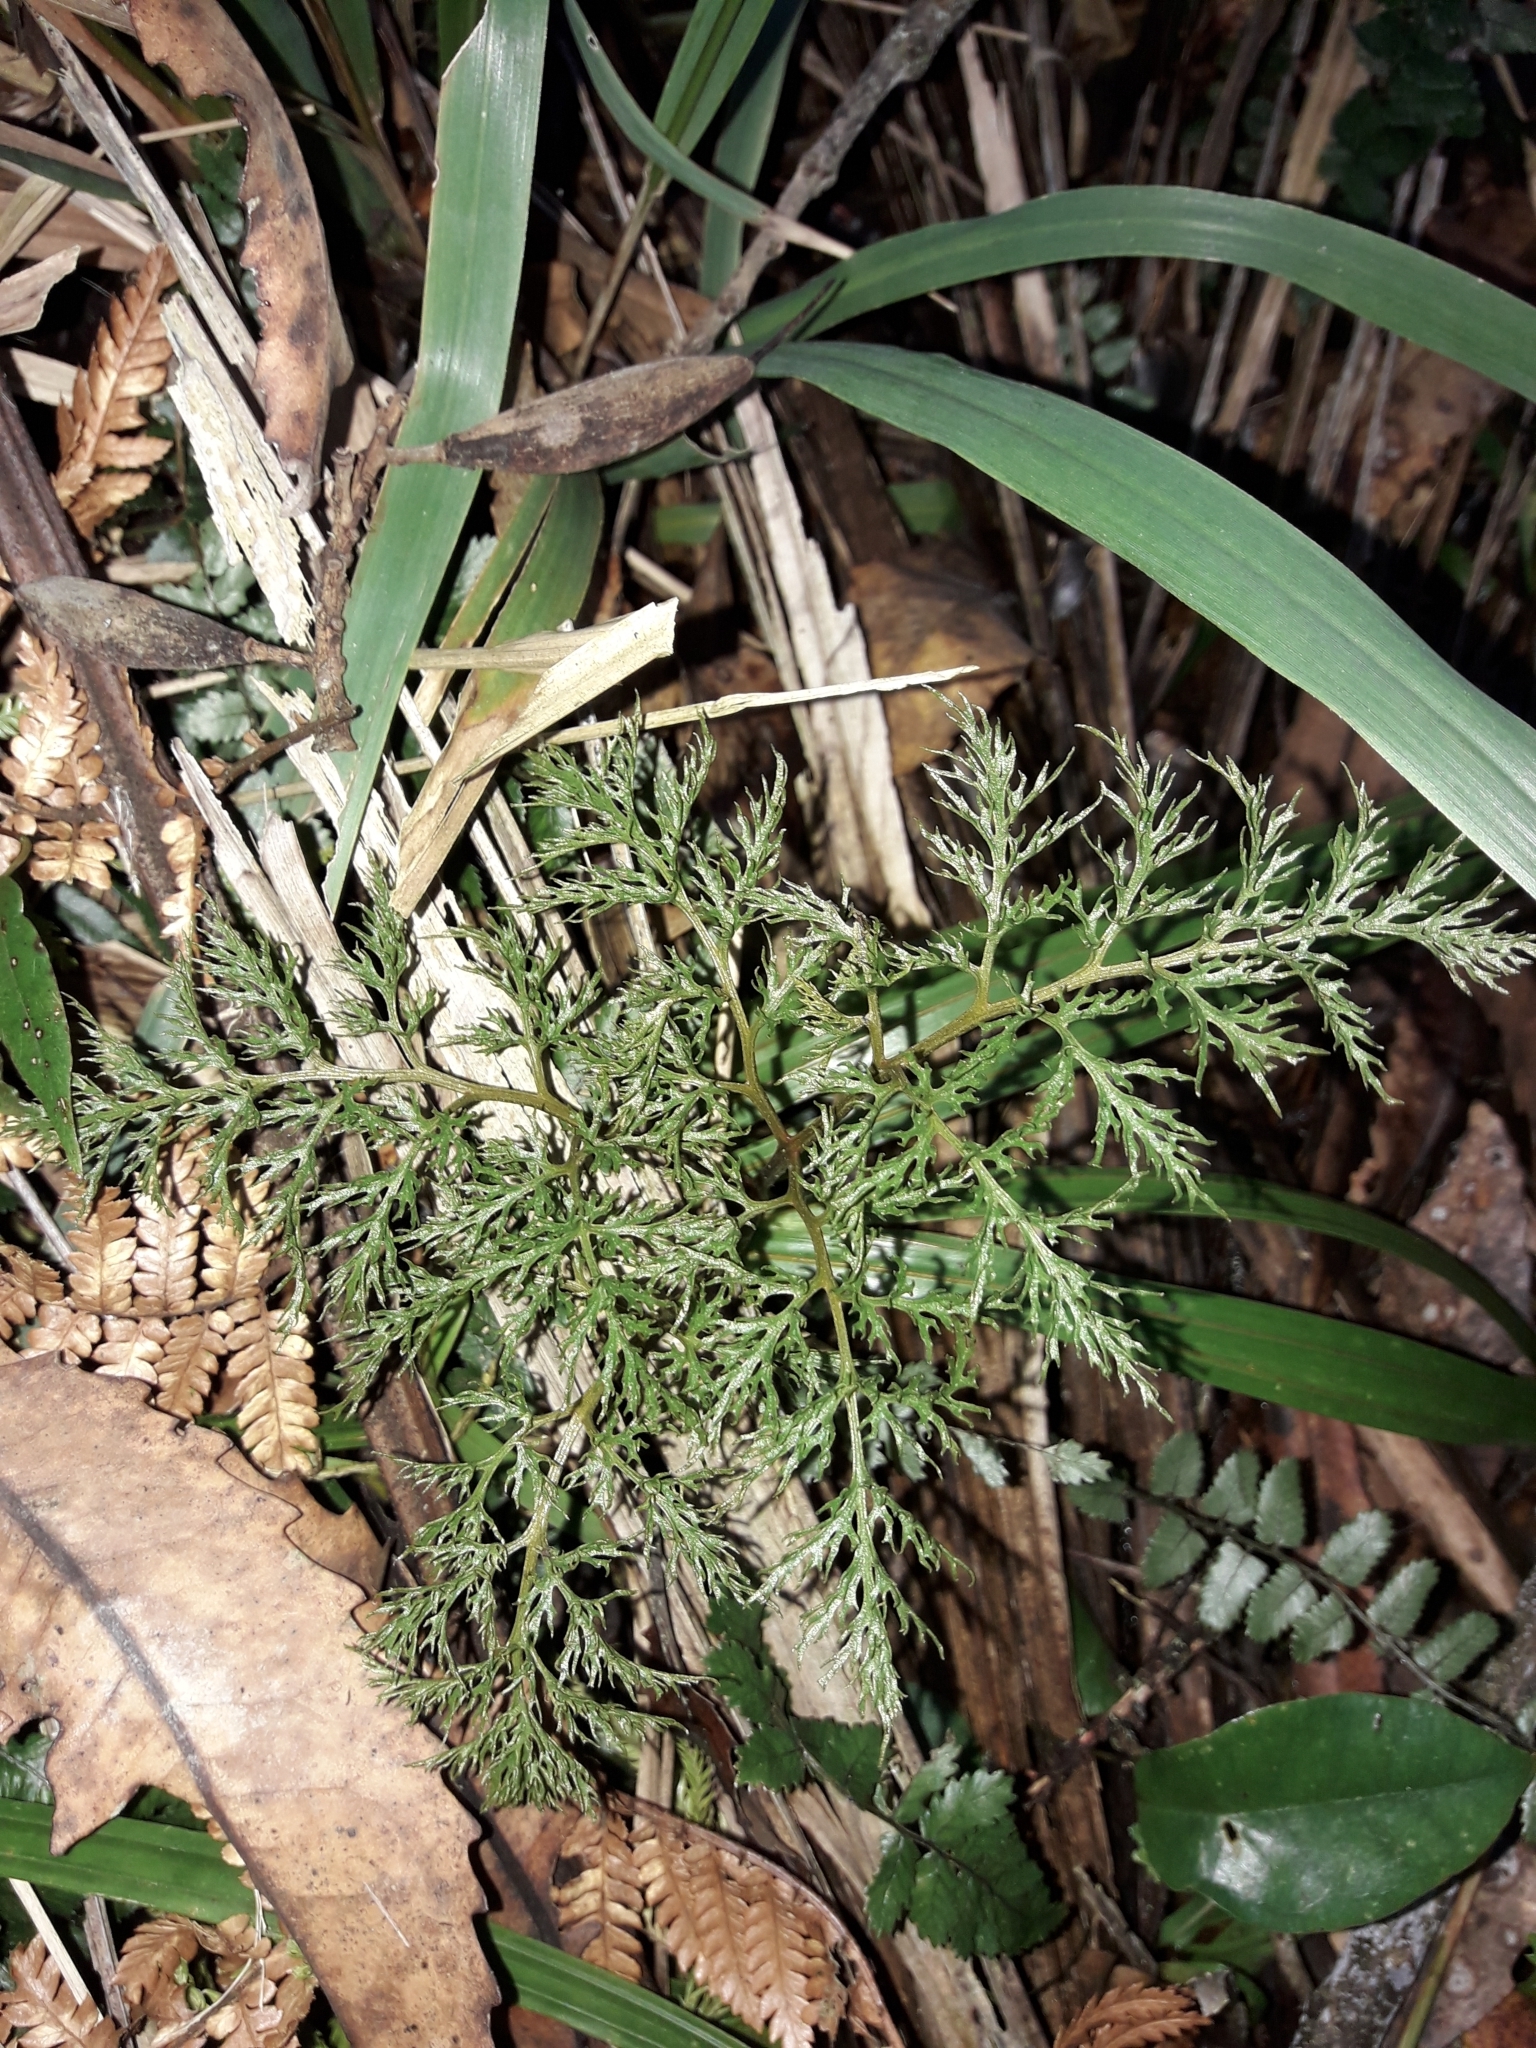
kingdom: Plantae
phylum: Tracheophyta
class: Polypodiopsida
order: Ophioglossales
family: Ophioglossaceae
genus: Sceptridium
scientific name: Sceptridium biforme
